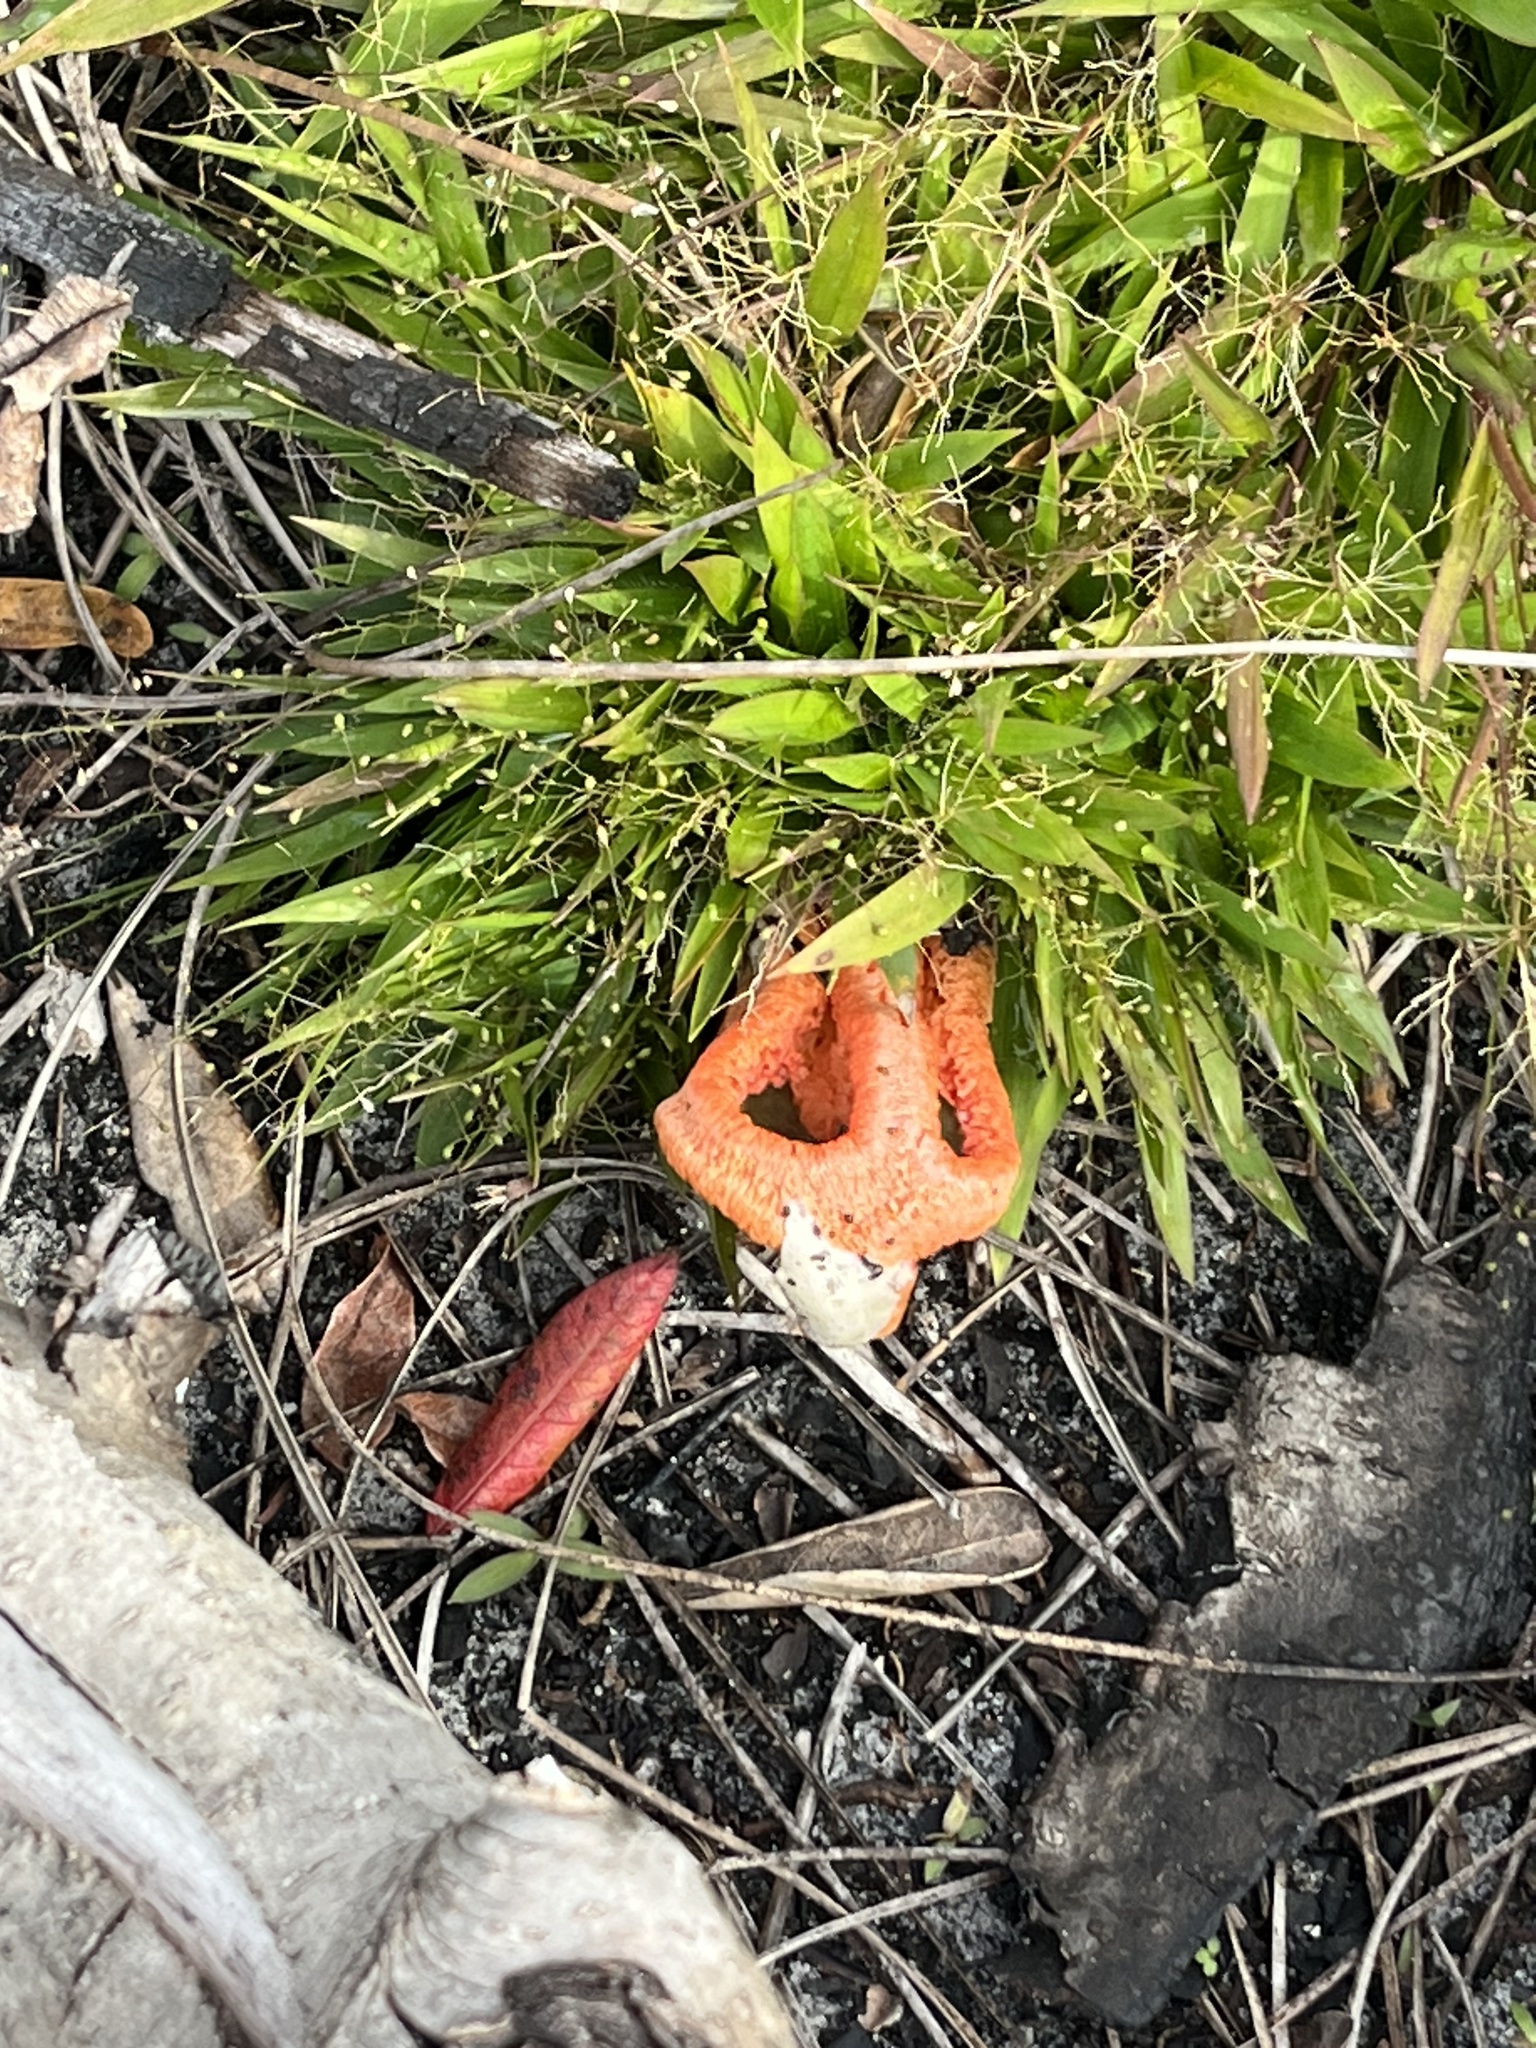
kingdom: Fungi
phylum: Basidiomycota
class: Agaricomycetes
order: Phallales
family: Phallaceae
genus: Clathrus
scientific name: Clathrus columnatus
